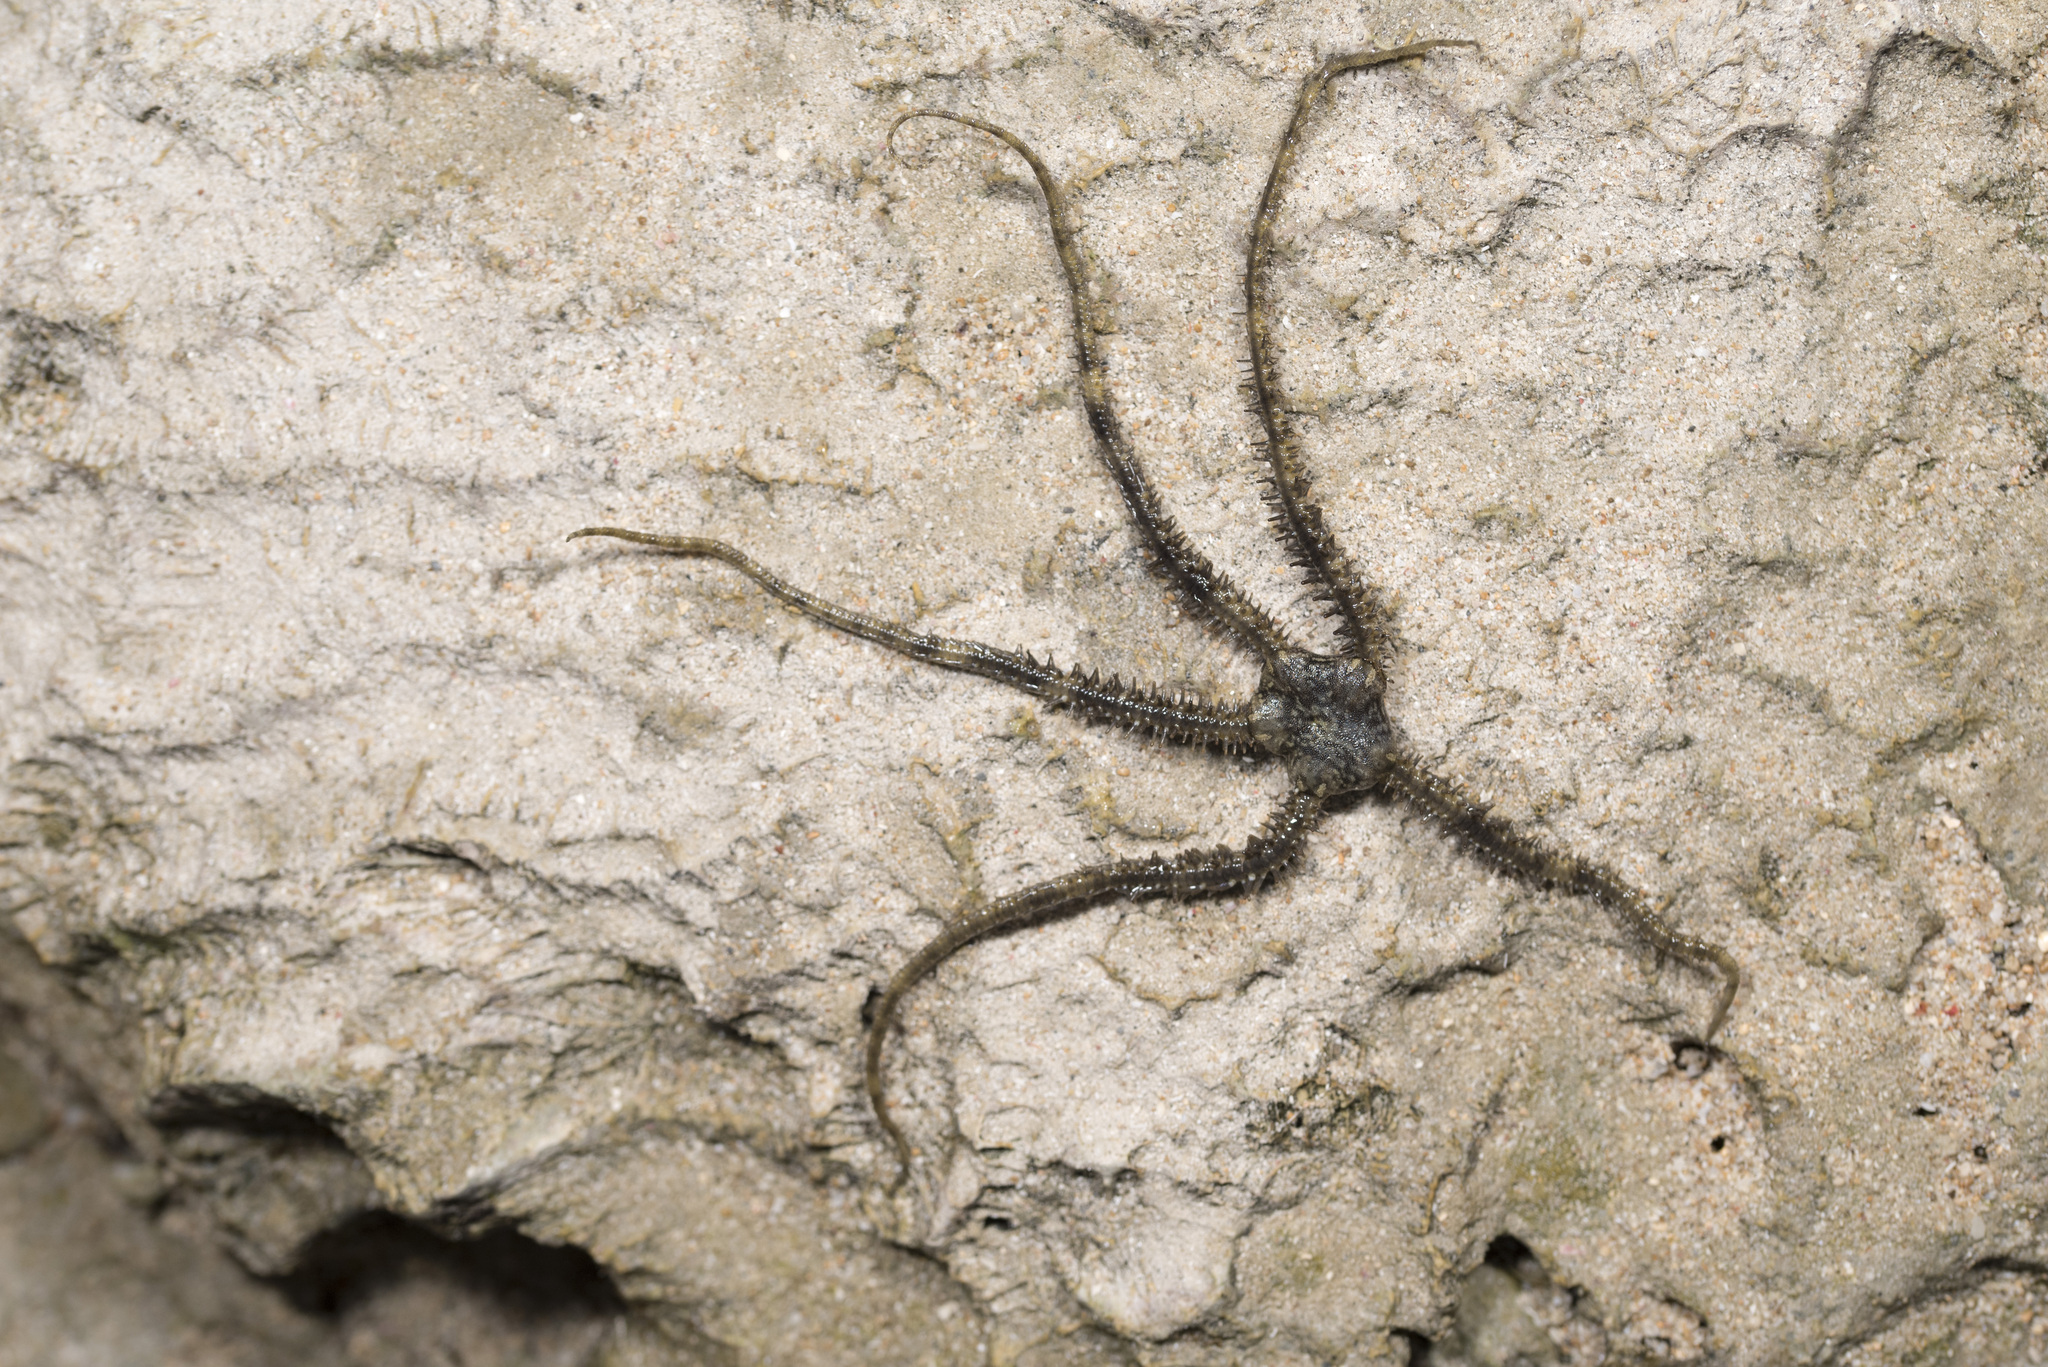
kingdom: Animalia
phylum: Echinodermata
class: Ophiuroidea
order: Ophiacanthida
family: Ophiocomidae
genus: Ophiocoma
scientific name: Ophiocoma scolopendrina
